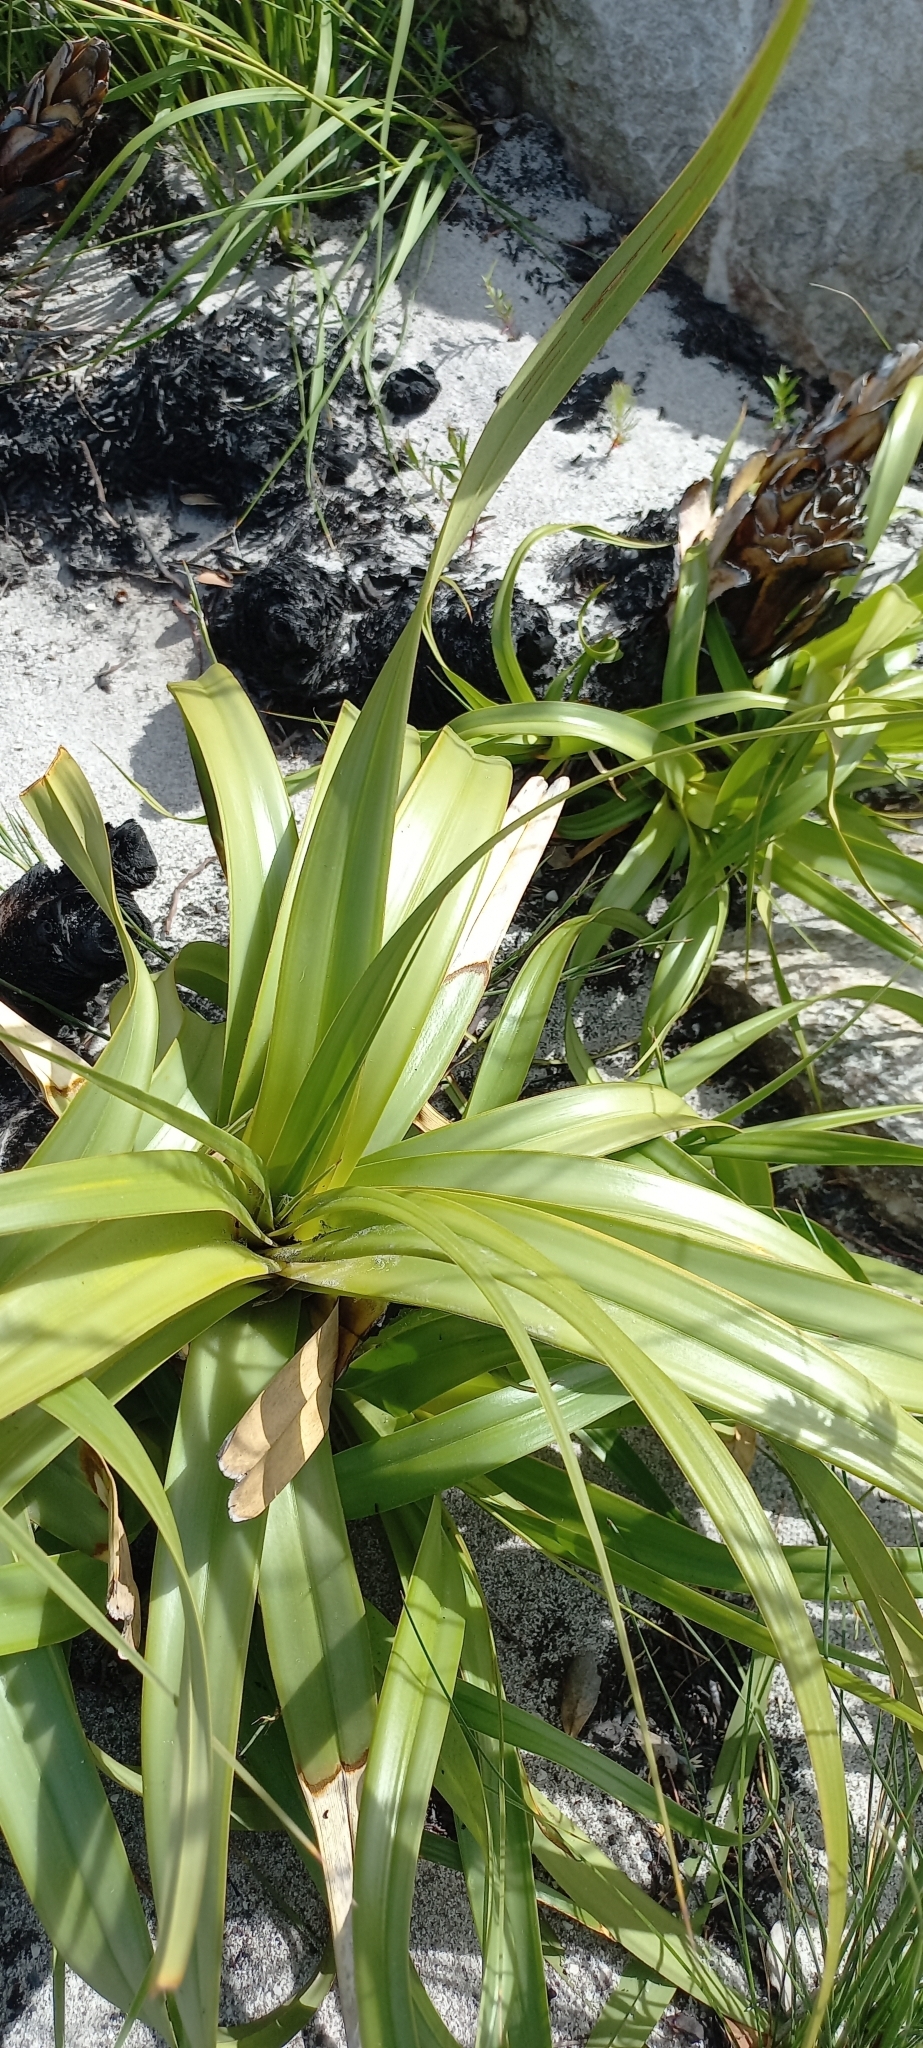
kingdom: Plantae
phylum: Tracheophyta
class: Liliopsida
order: Poales
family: Cyperaceae
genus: Tetraria
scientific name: Tetraria thermalis
